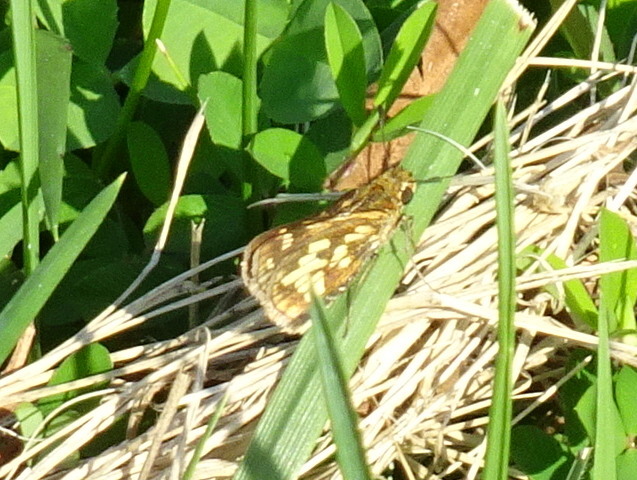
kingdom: Animalia
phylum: Arthropoda
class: Insecta
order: Lepidoptera
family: Hesperiidae
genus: Polites
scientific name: Polites coras
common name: Peck's skipper
